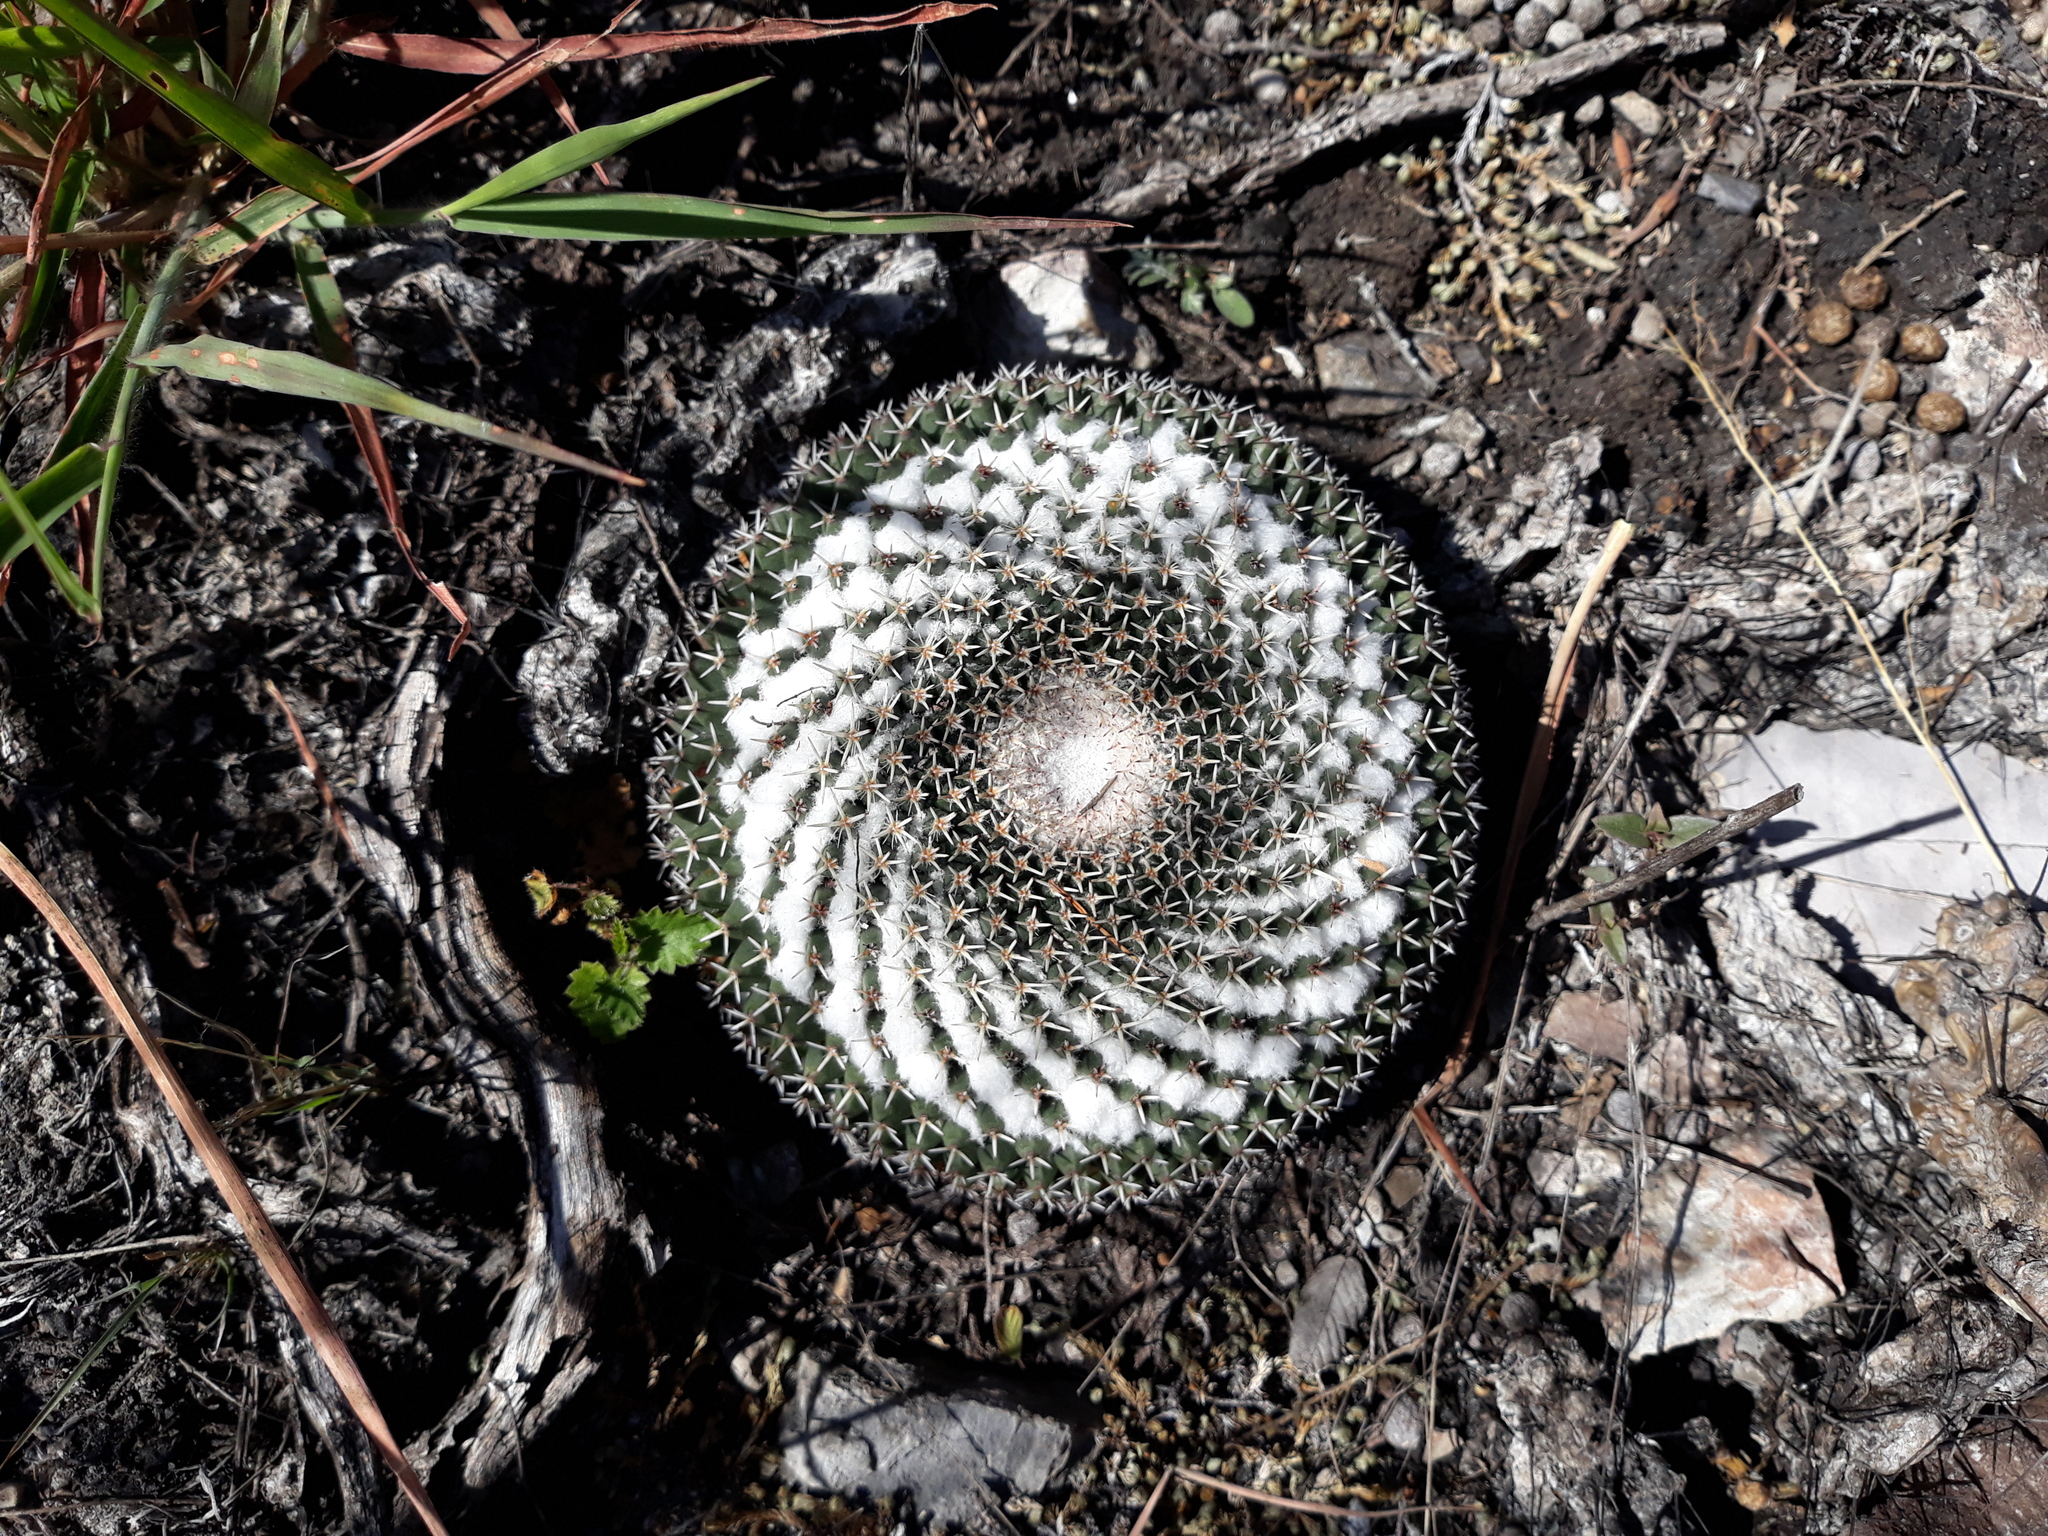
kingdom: Plantae
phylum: Tracheophyta
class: Magnoliopsida
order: Caryophyllales
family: Cactaceae
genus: Mammillaria
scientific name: Mammillaria
